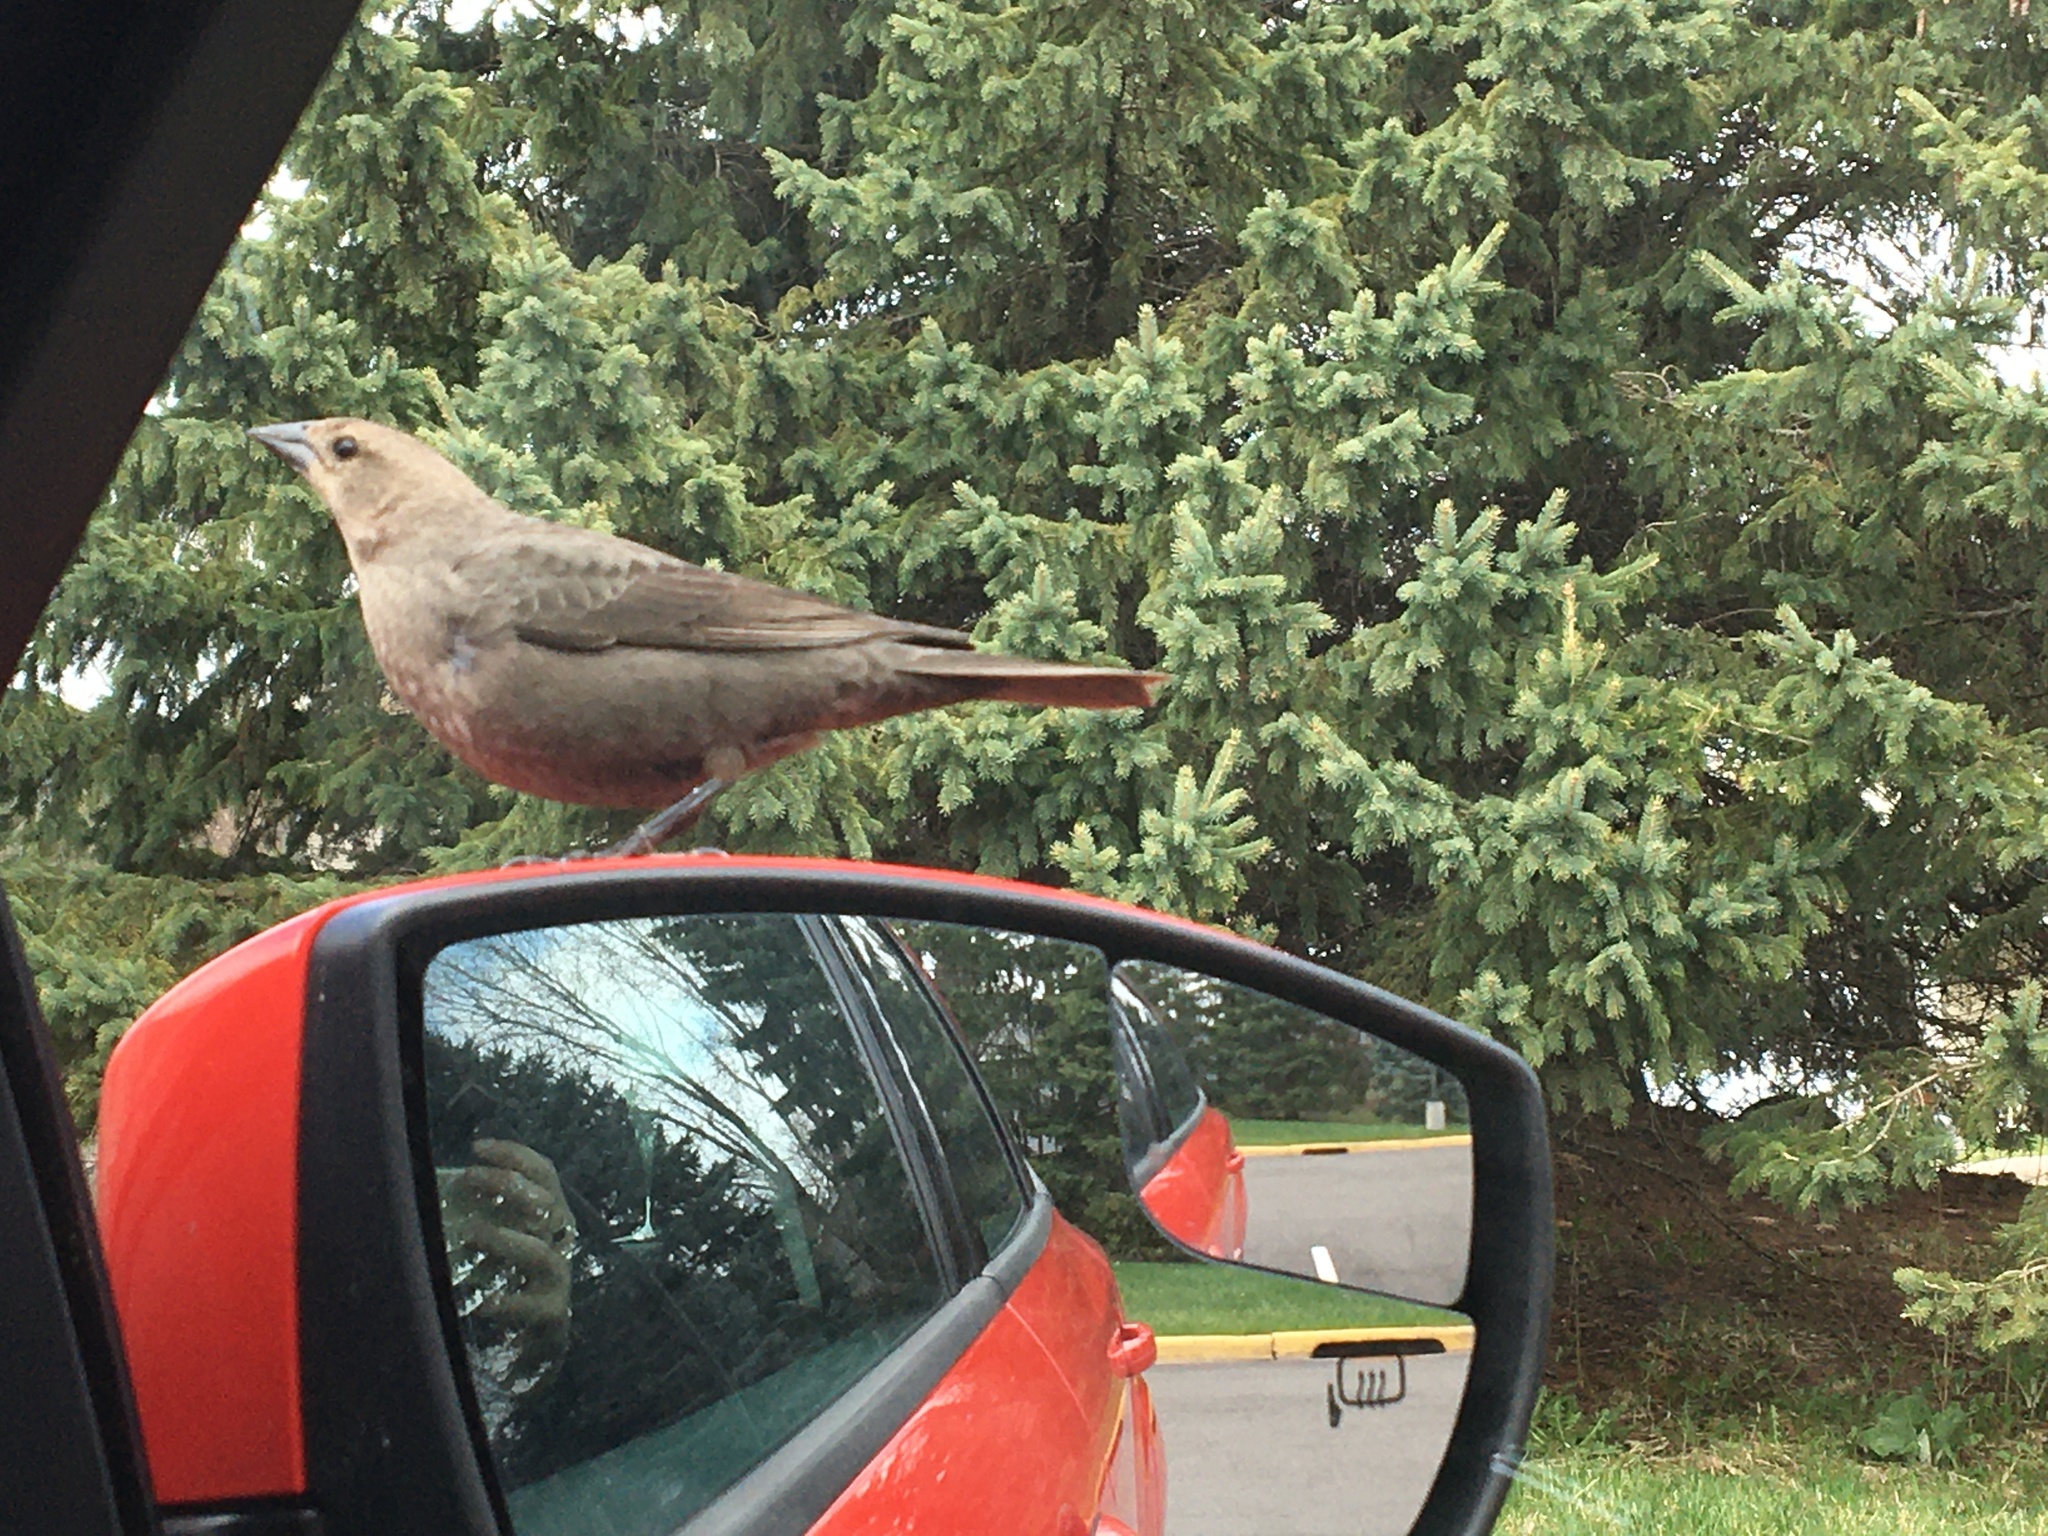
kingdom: Animalia
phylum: Chordata
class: Aves
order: Passeriformes
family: Icteridae
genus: Molothrus
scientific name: Molothrus ater
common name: Brown-headed cowbird
